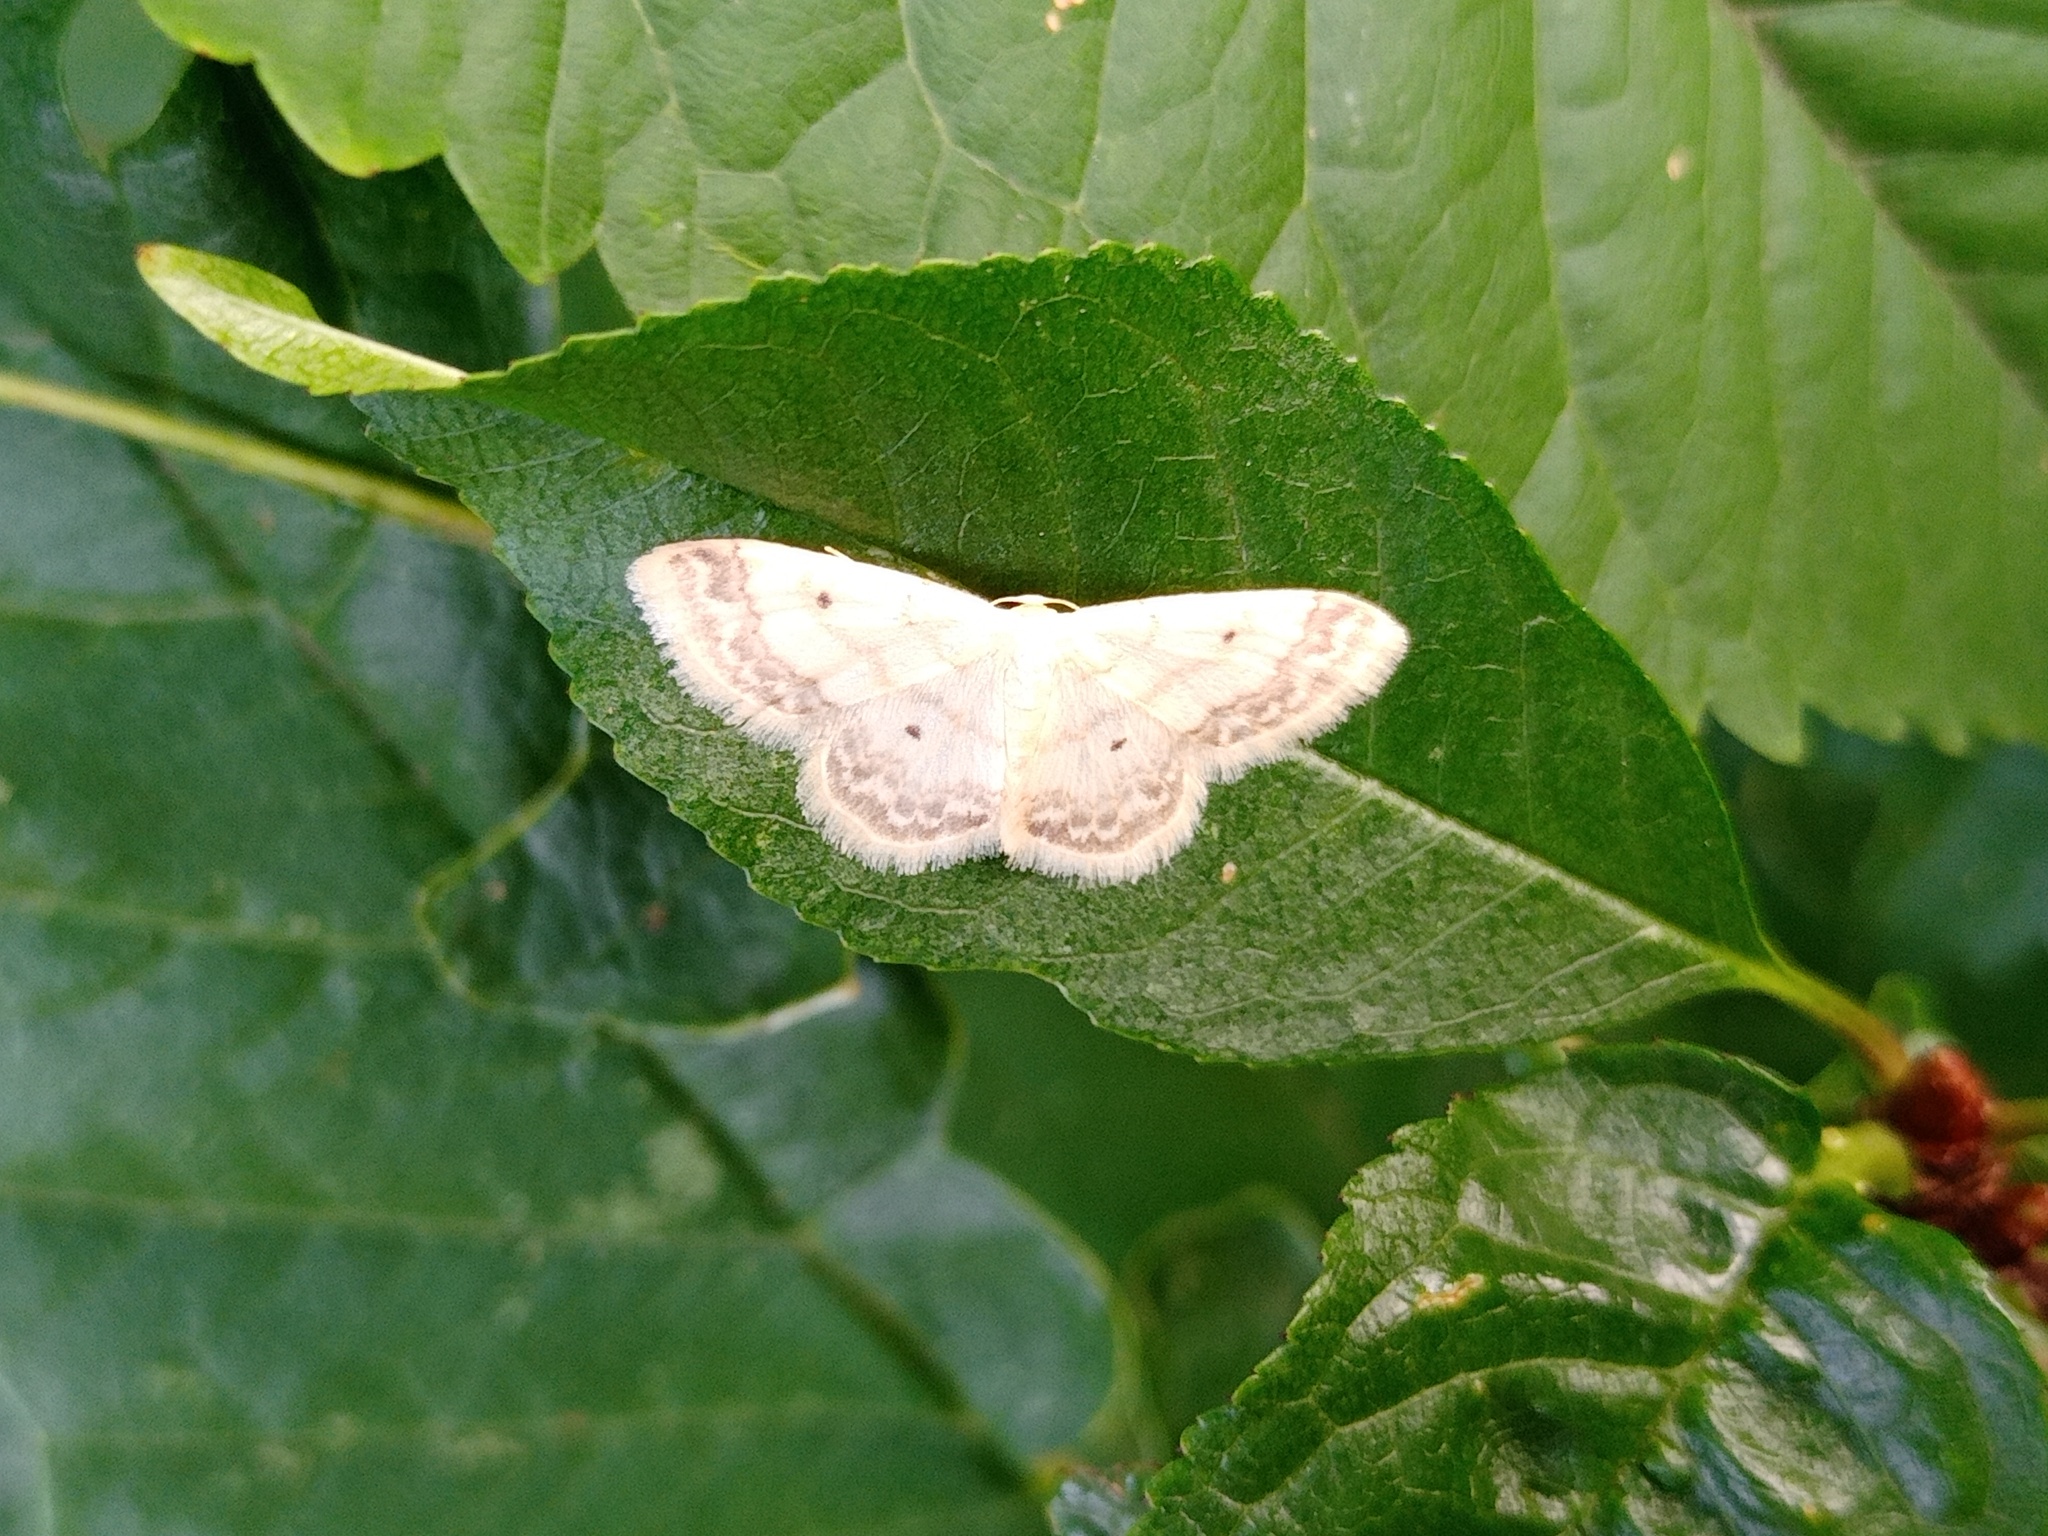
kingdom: Animalia
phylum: Arthropoda
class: Insecta
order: Lepidoptera
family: Geometridae
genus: Idaea
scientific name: Idaea biselata
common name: Small fan-footed wave
